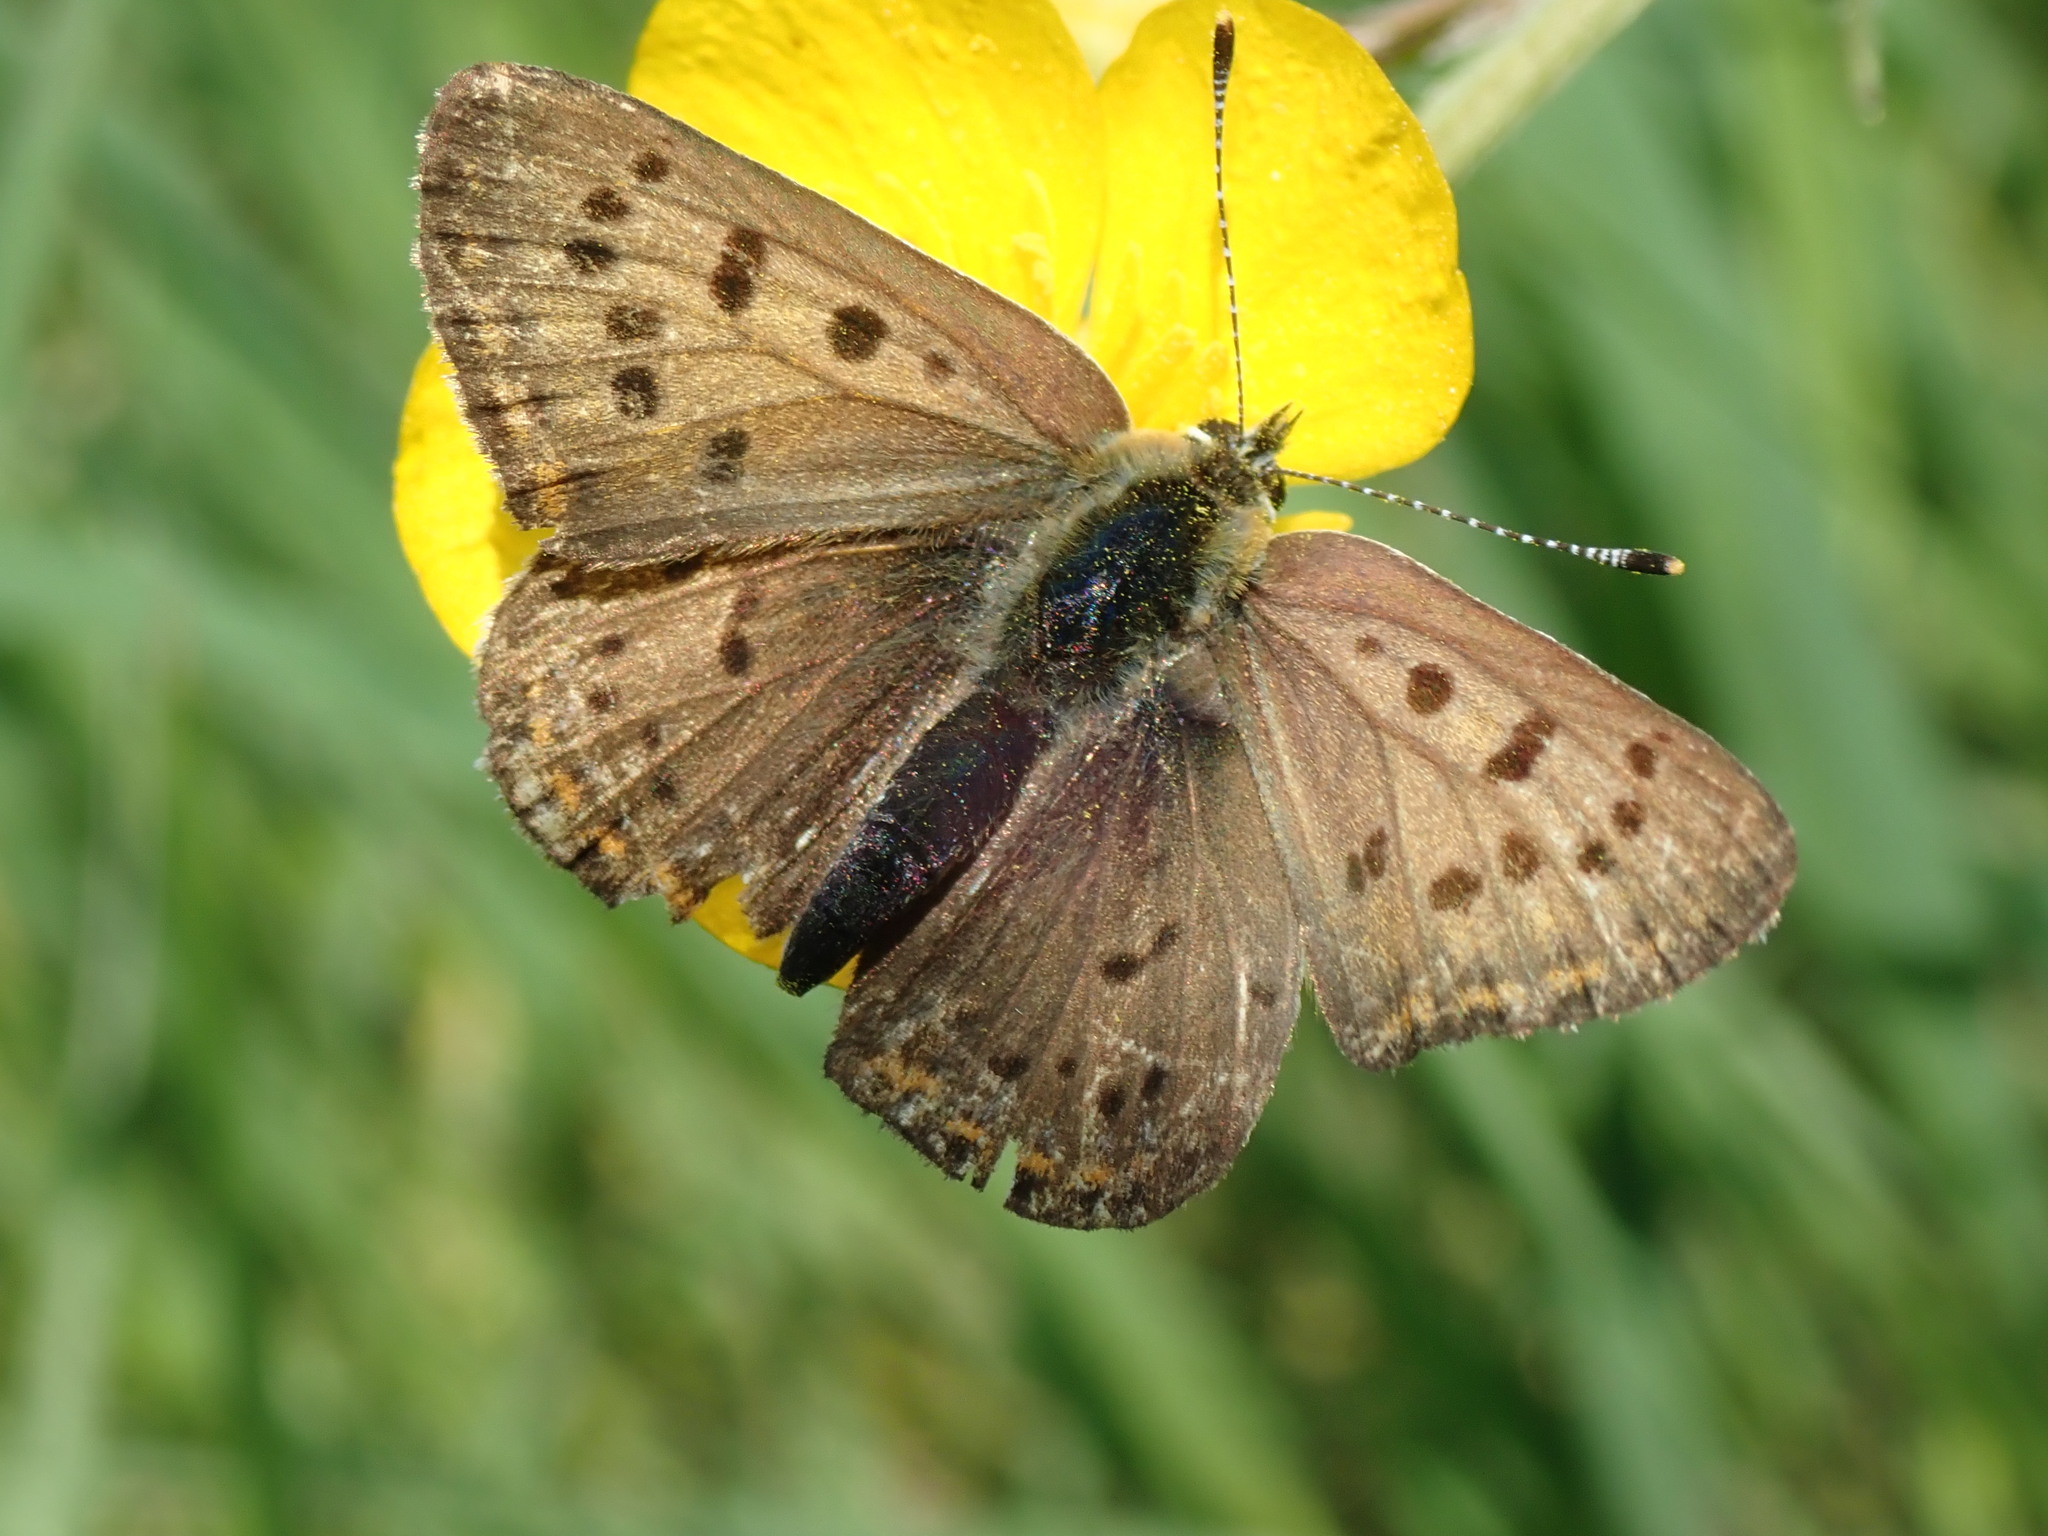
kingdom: Animalia
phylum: Arthropoda
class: Insecta
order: Lepidoptera
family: Lycaenidae
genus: Loweia
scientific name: Loweia tityrus
